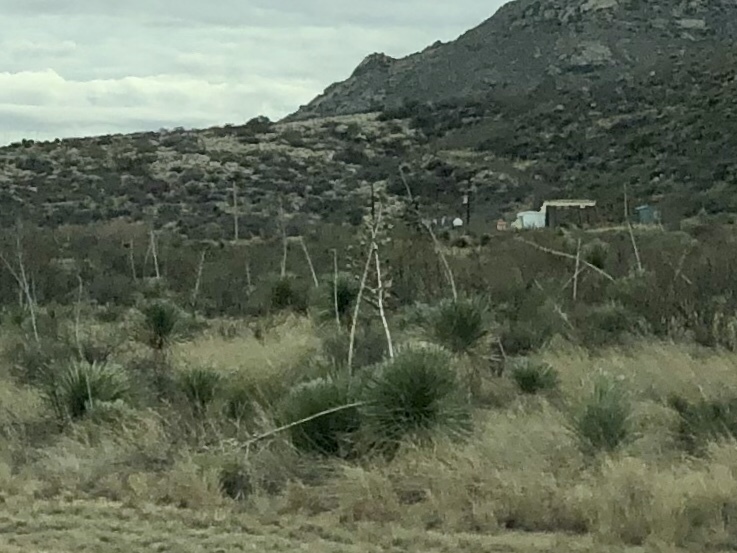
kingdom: Plantae
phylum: Tracheophyta
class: Liliopsida
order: Asparagales
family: Asparagaceae
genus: Yucca
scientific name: Yucca elata
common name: Palmella
